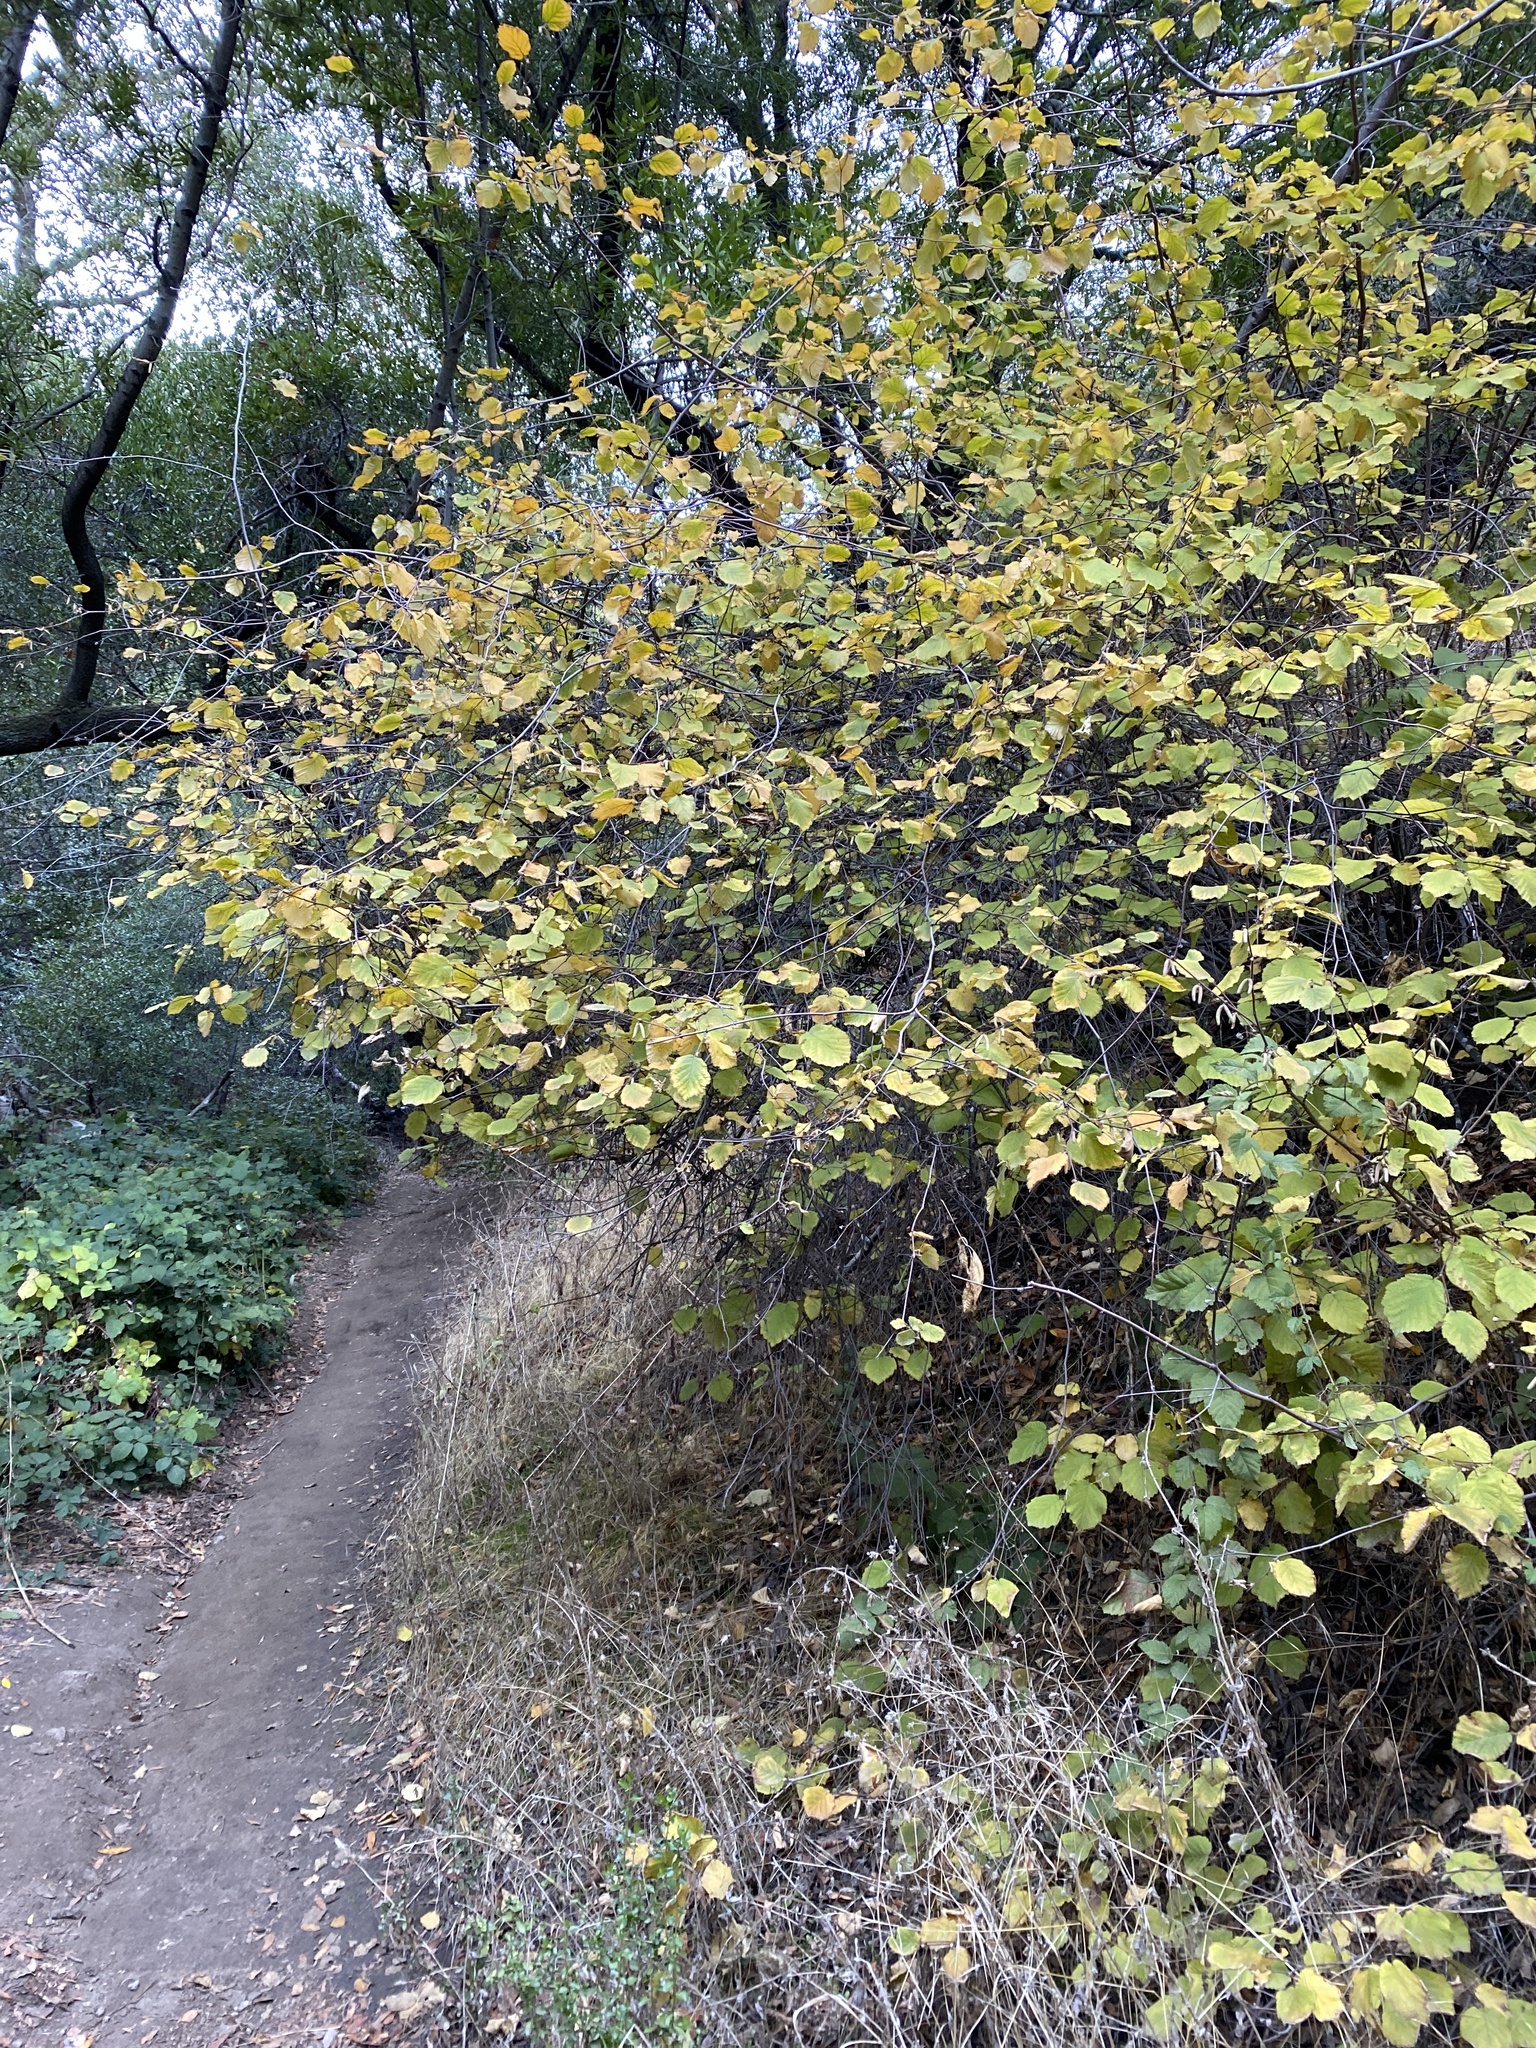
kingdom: Plantae
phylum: Tracheophyta
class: Magnoliopsida
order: Fagales
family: Betulaceae
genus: Corylus
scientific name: Corylus cornuta
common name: Beaked hazel
